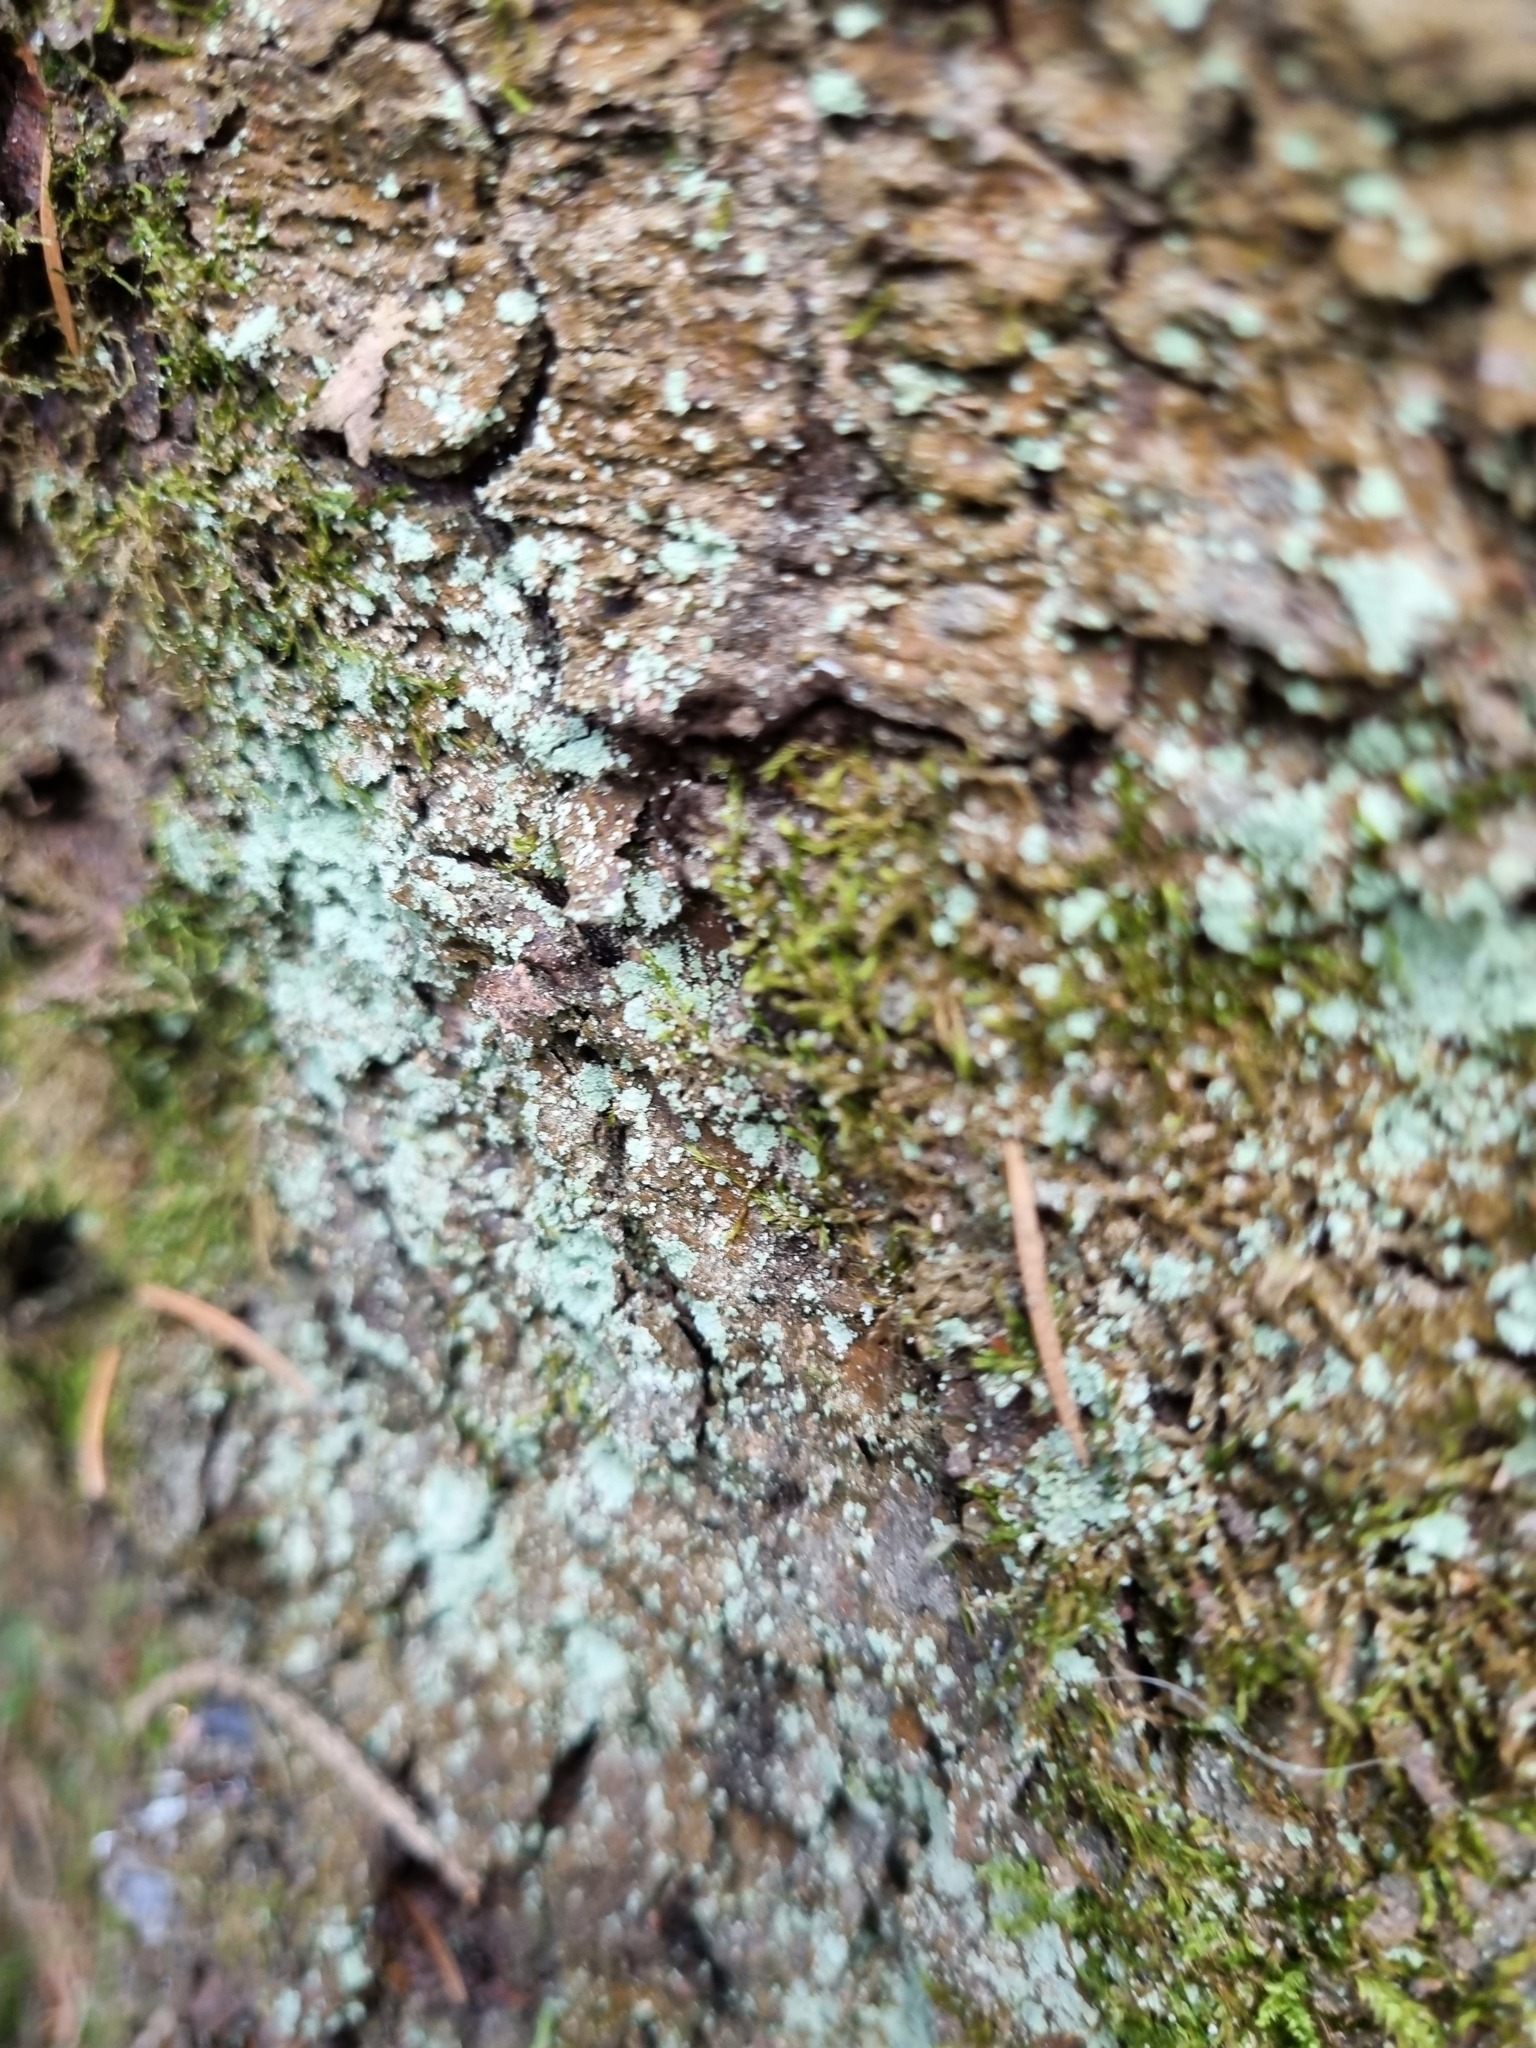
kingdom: Fungi
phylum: Ascomycota
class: Lecanoromycetes
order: Lecanorales
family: Stereocaulaceae
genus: Lepraria
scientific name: Lepraria
